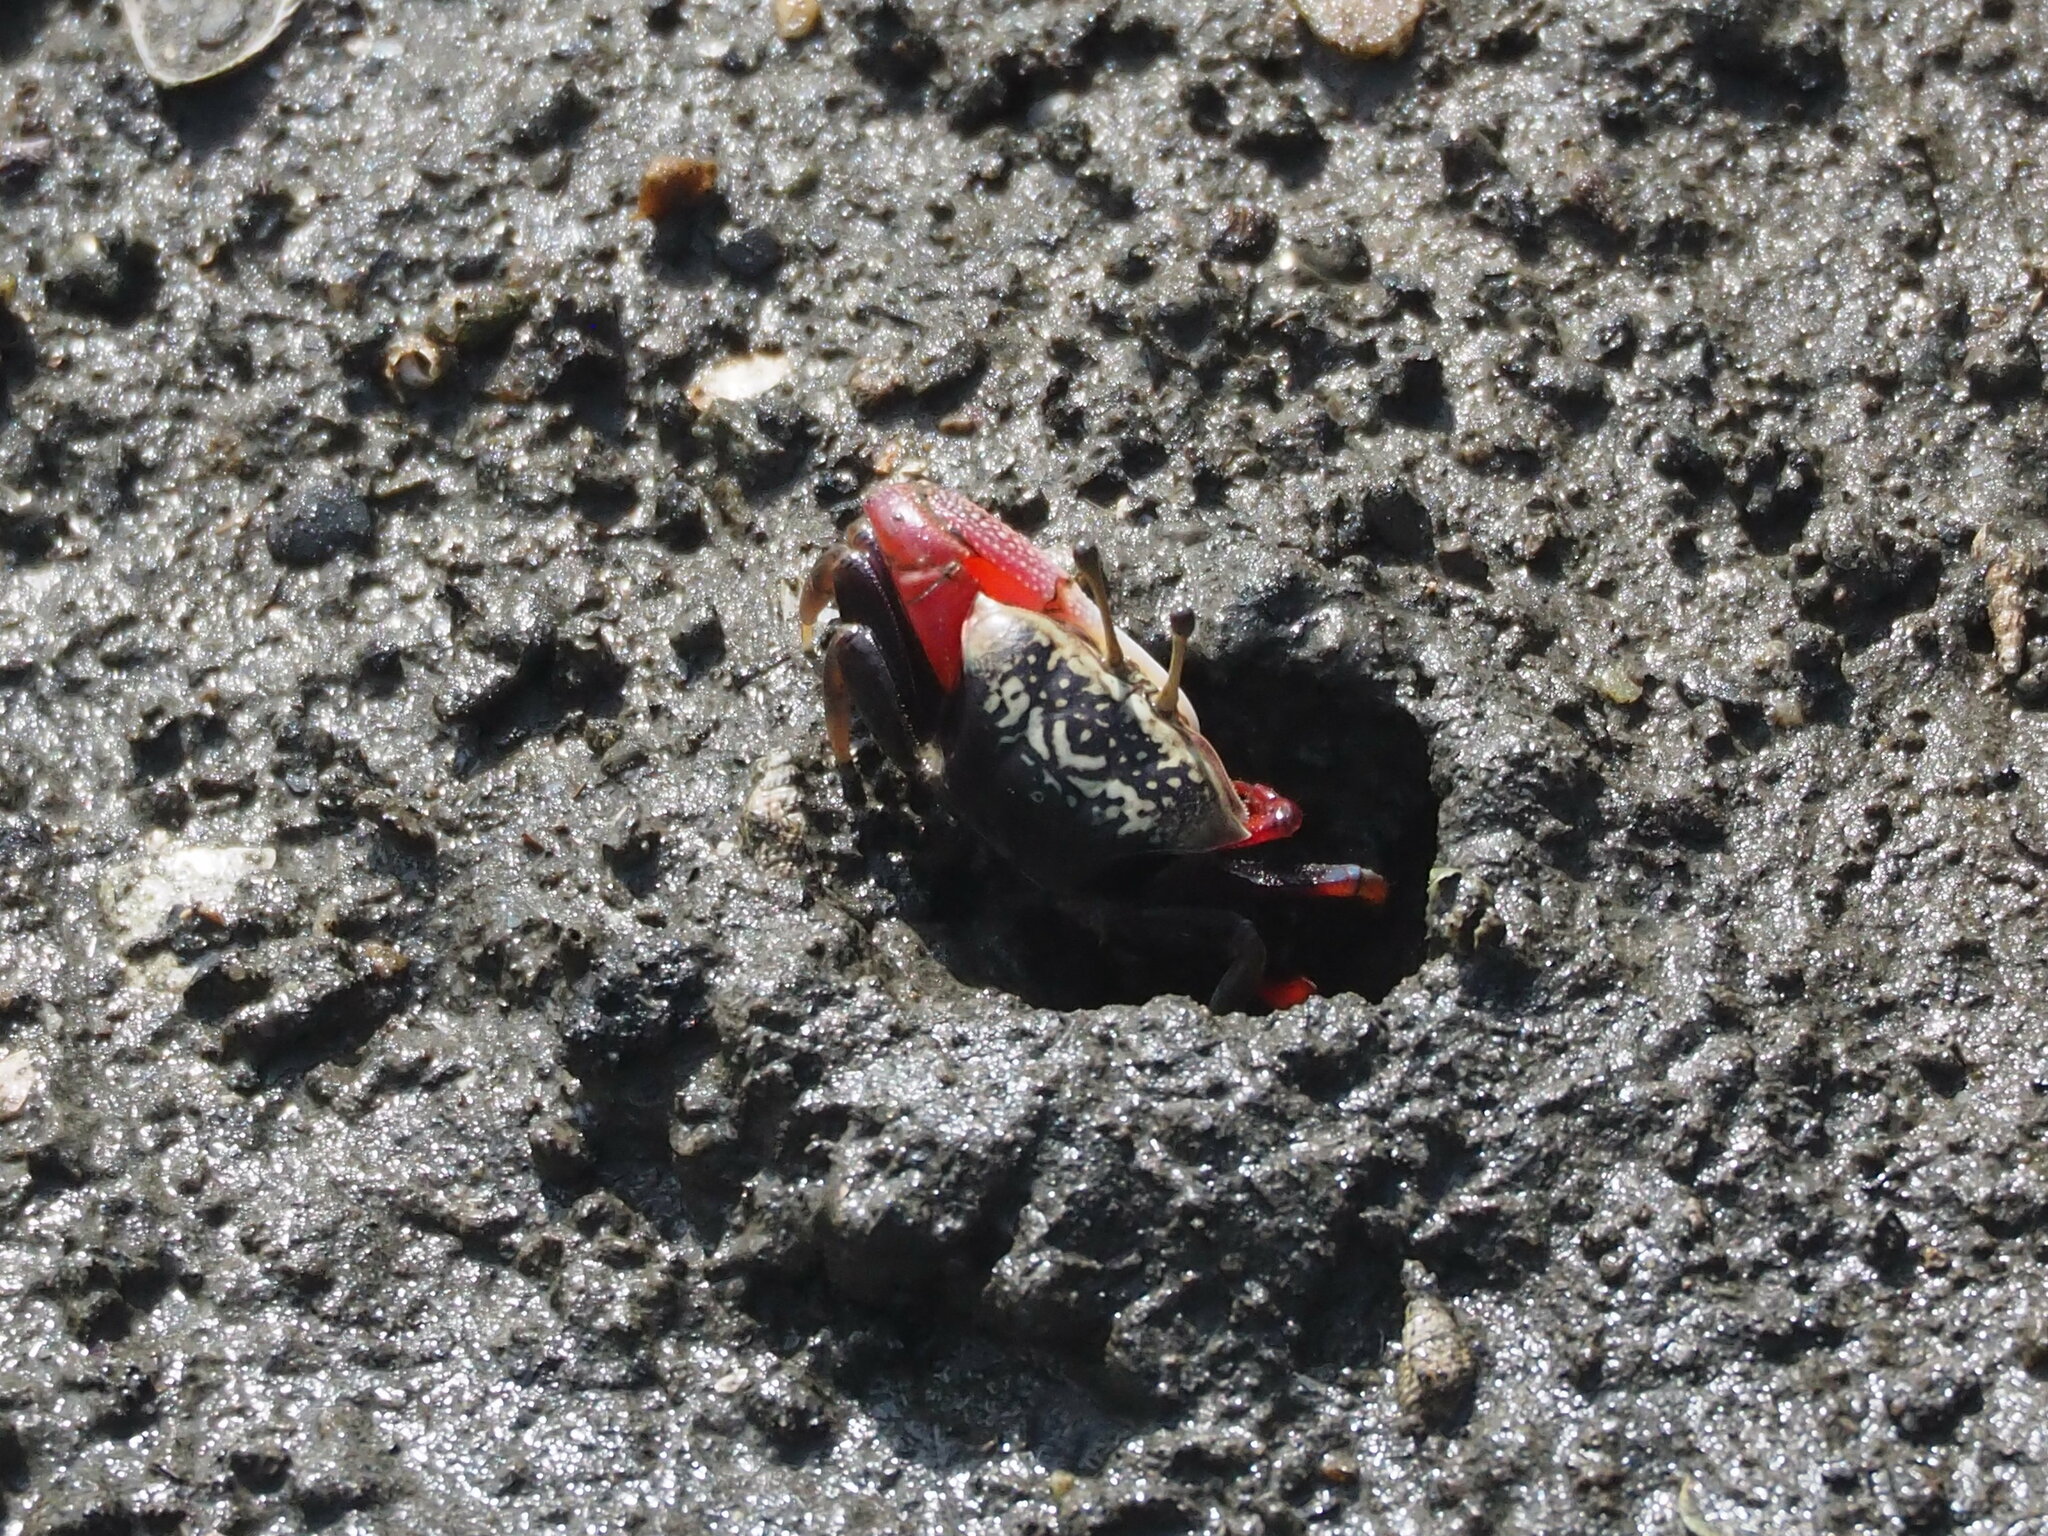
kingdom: Animalia
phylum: Arthropoda
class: Malacostraca
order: Decapoda
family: Ocypodidae
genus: Tubuca
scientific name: Tubuca arcuata
